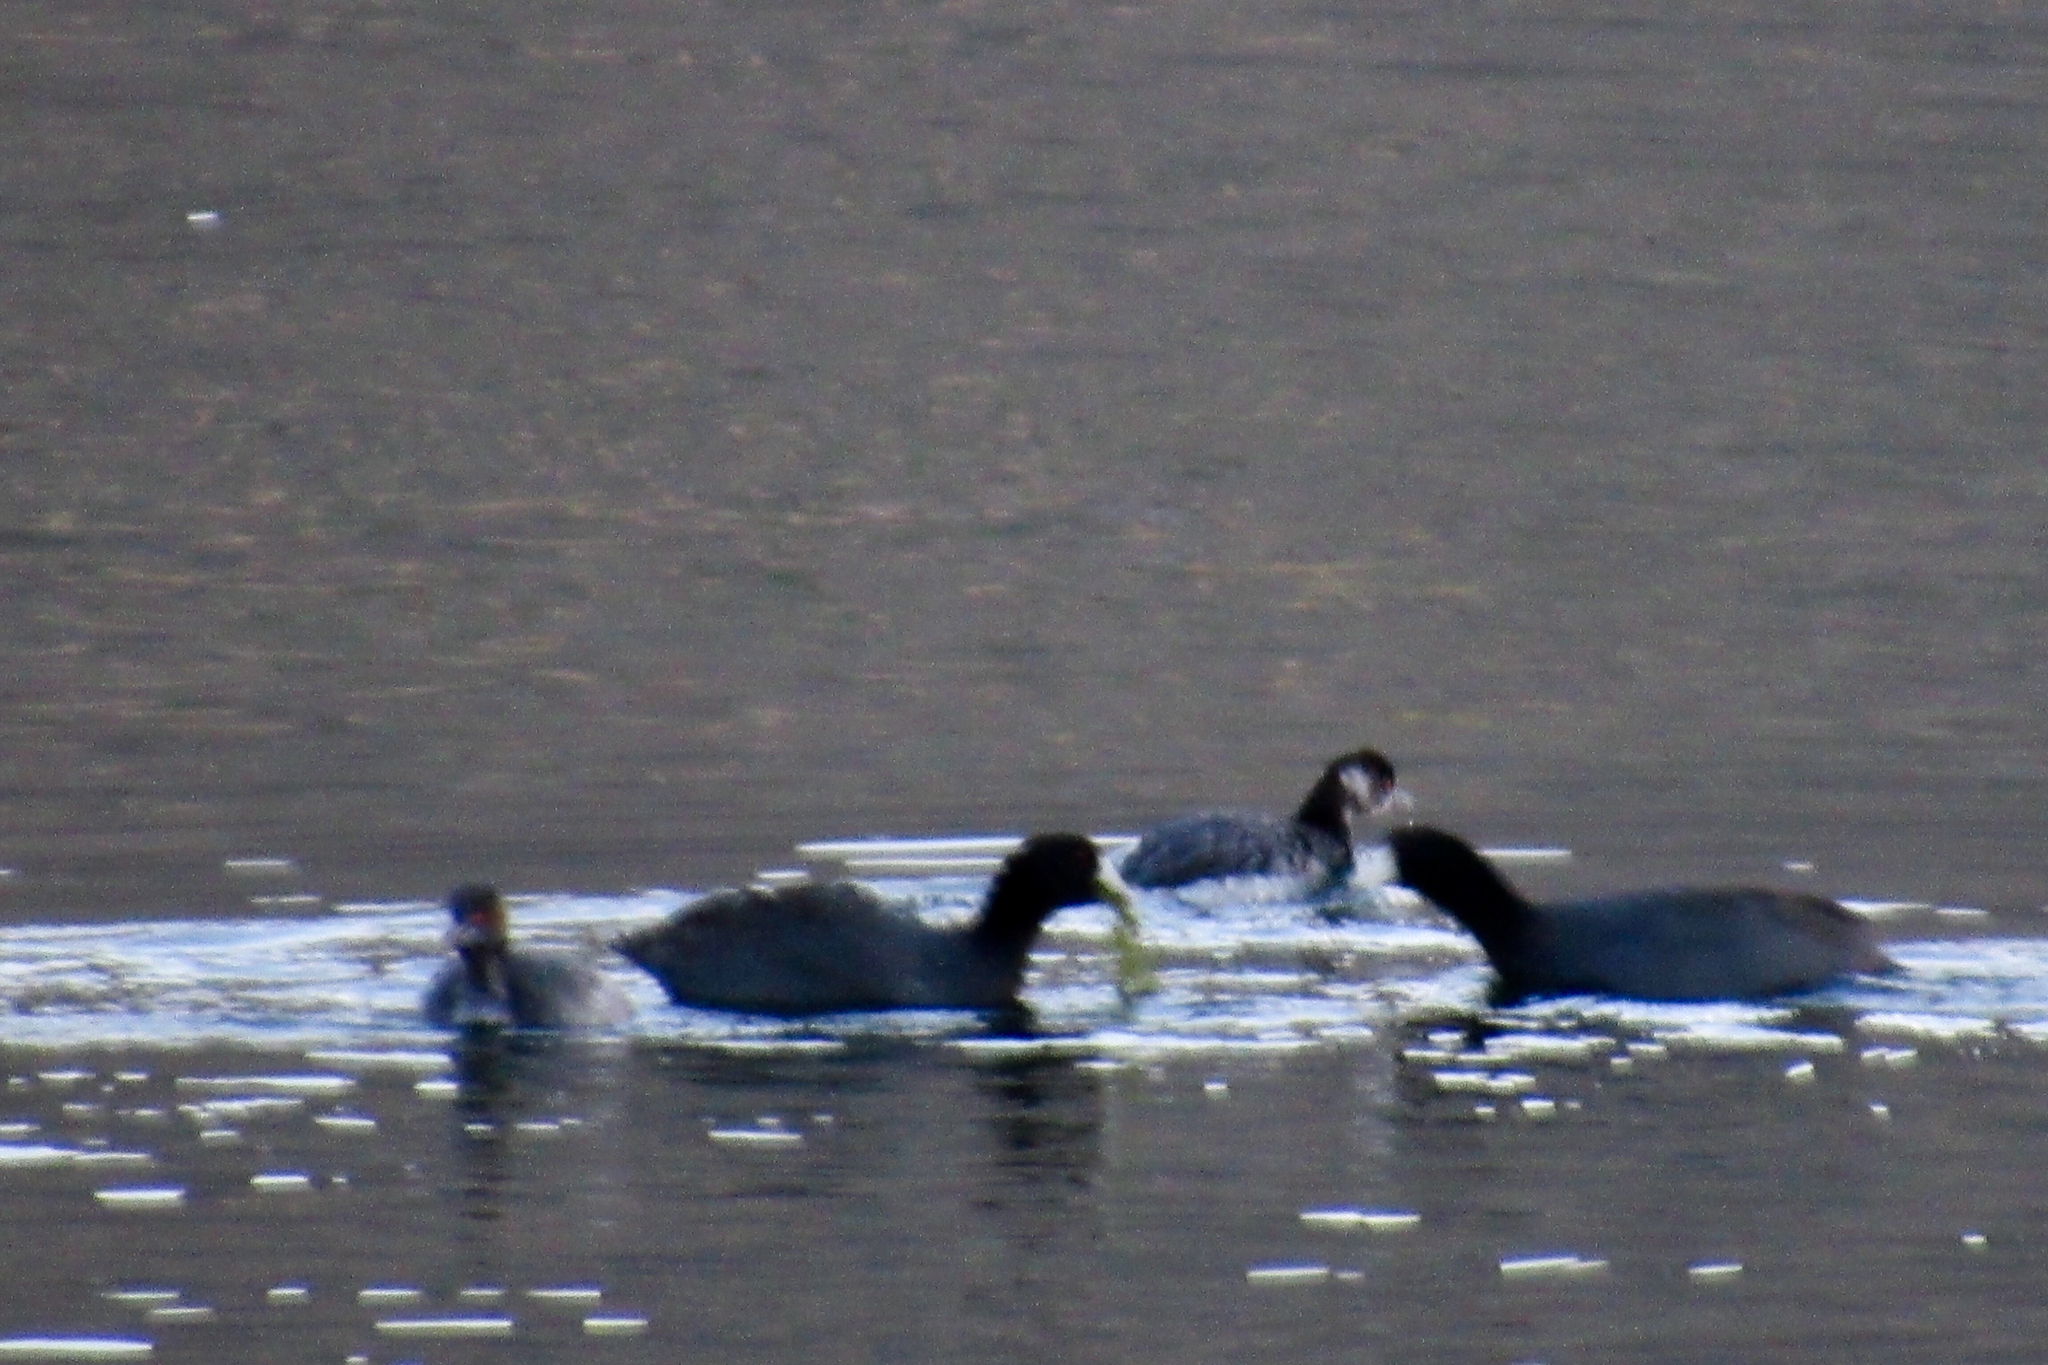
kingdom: Animalia
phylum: Chordata
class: Aves
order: Gruiformes
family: Rallidae
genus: Fulica
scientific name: Fulica americana
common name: American coot
